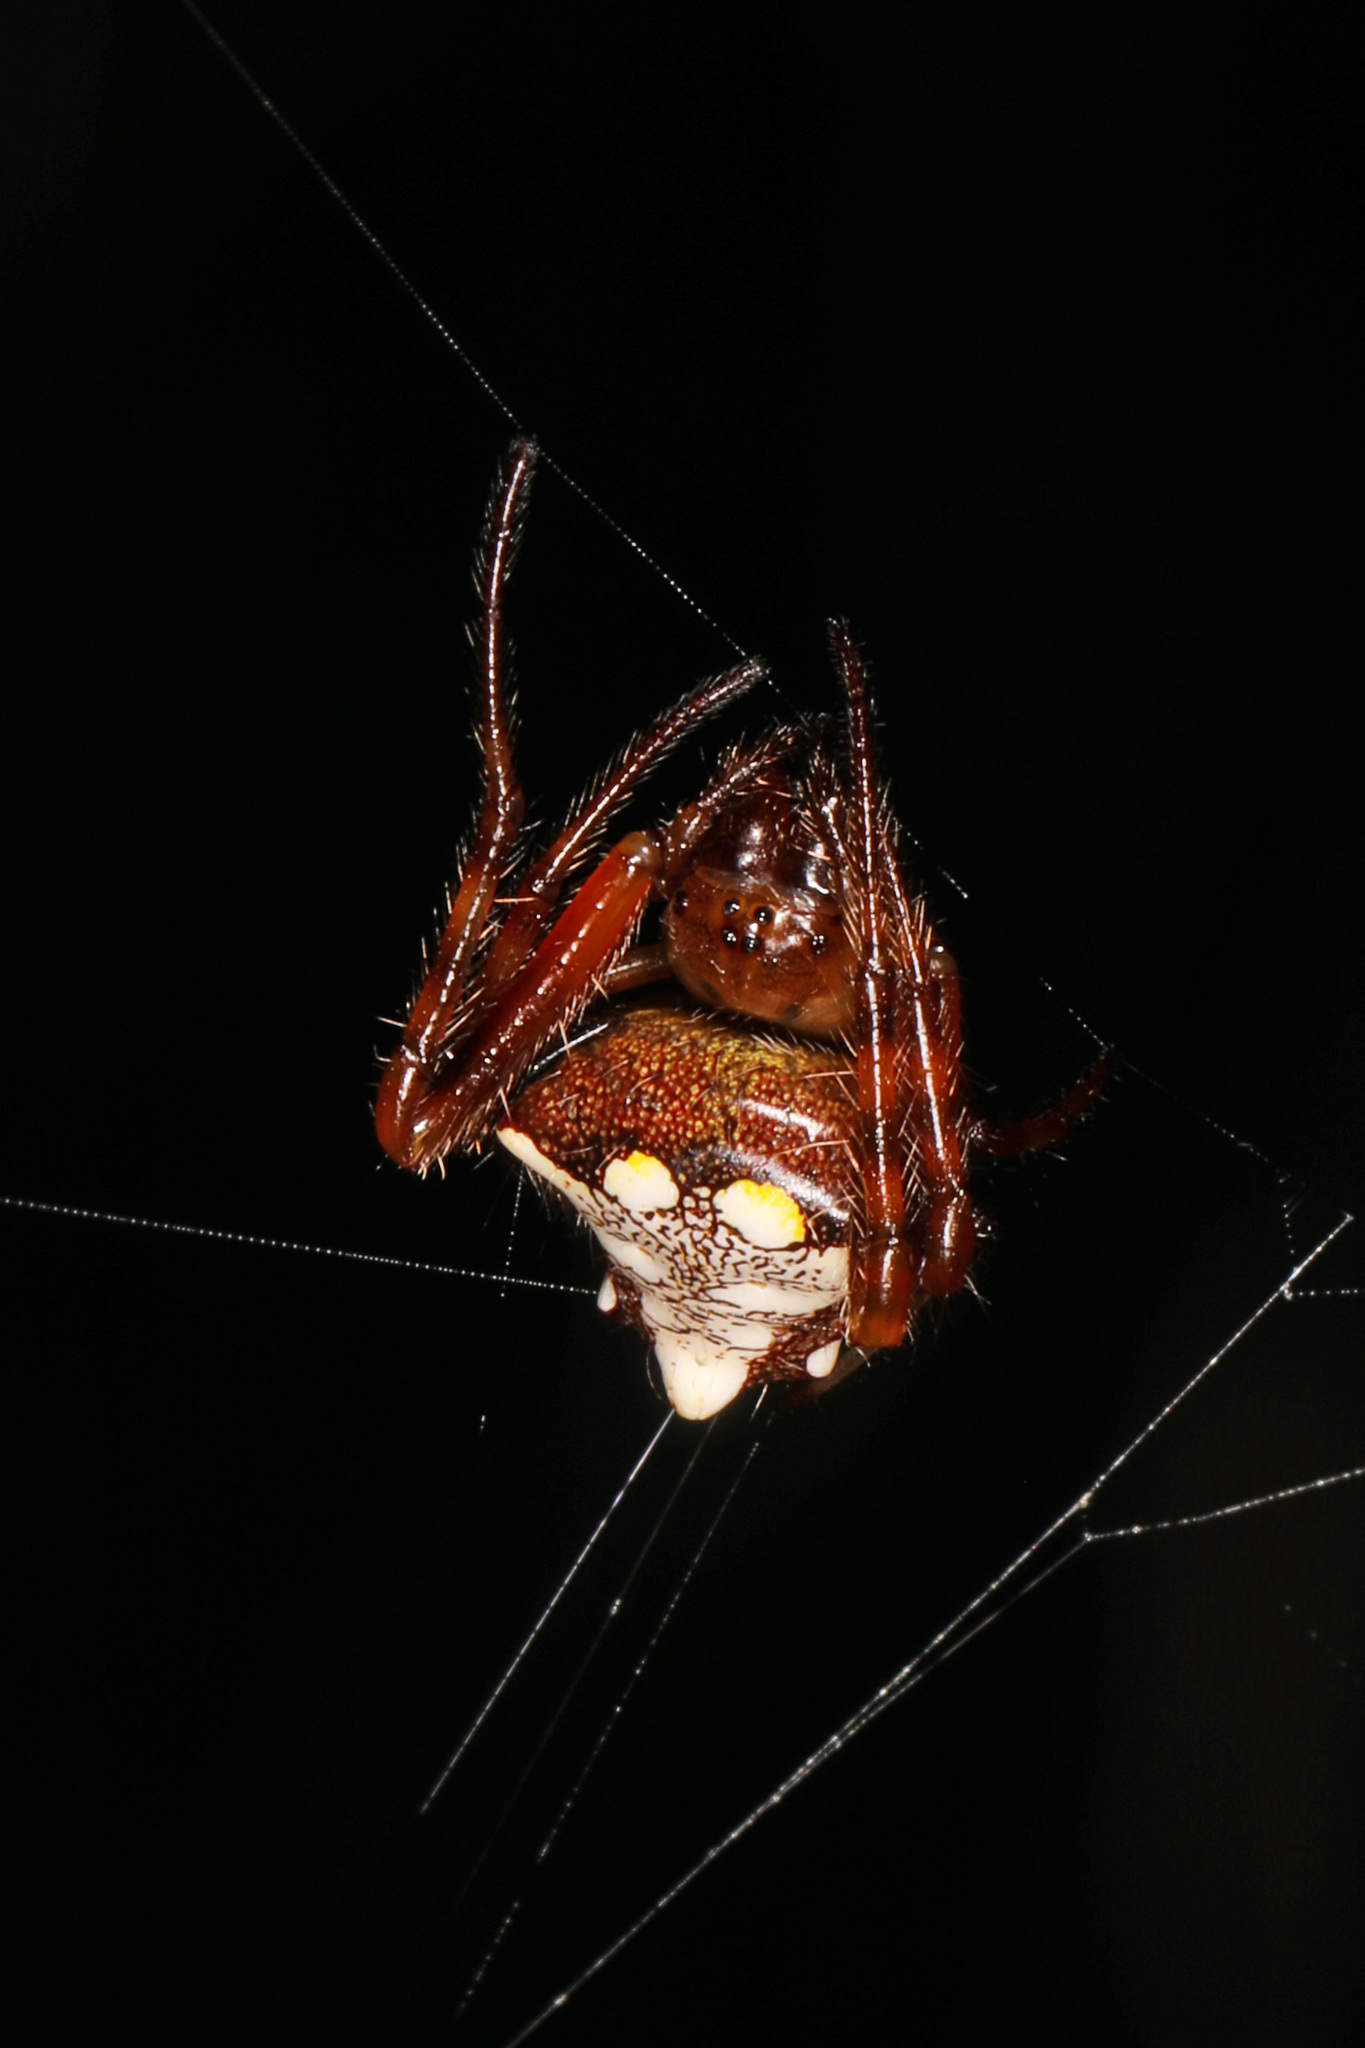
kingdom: Animalia
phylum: Arthropoda
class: Arachnida
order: Araneae
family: Araneidae
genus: Verrucosa
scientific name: Verrucosa arenata
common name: Orb weavers
